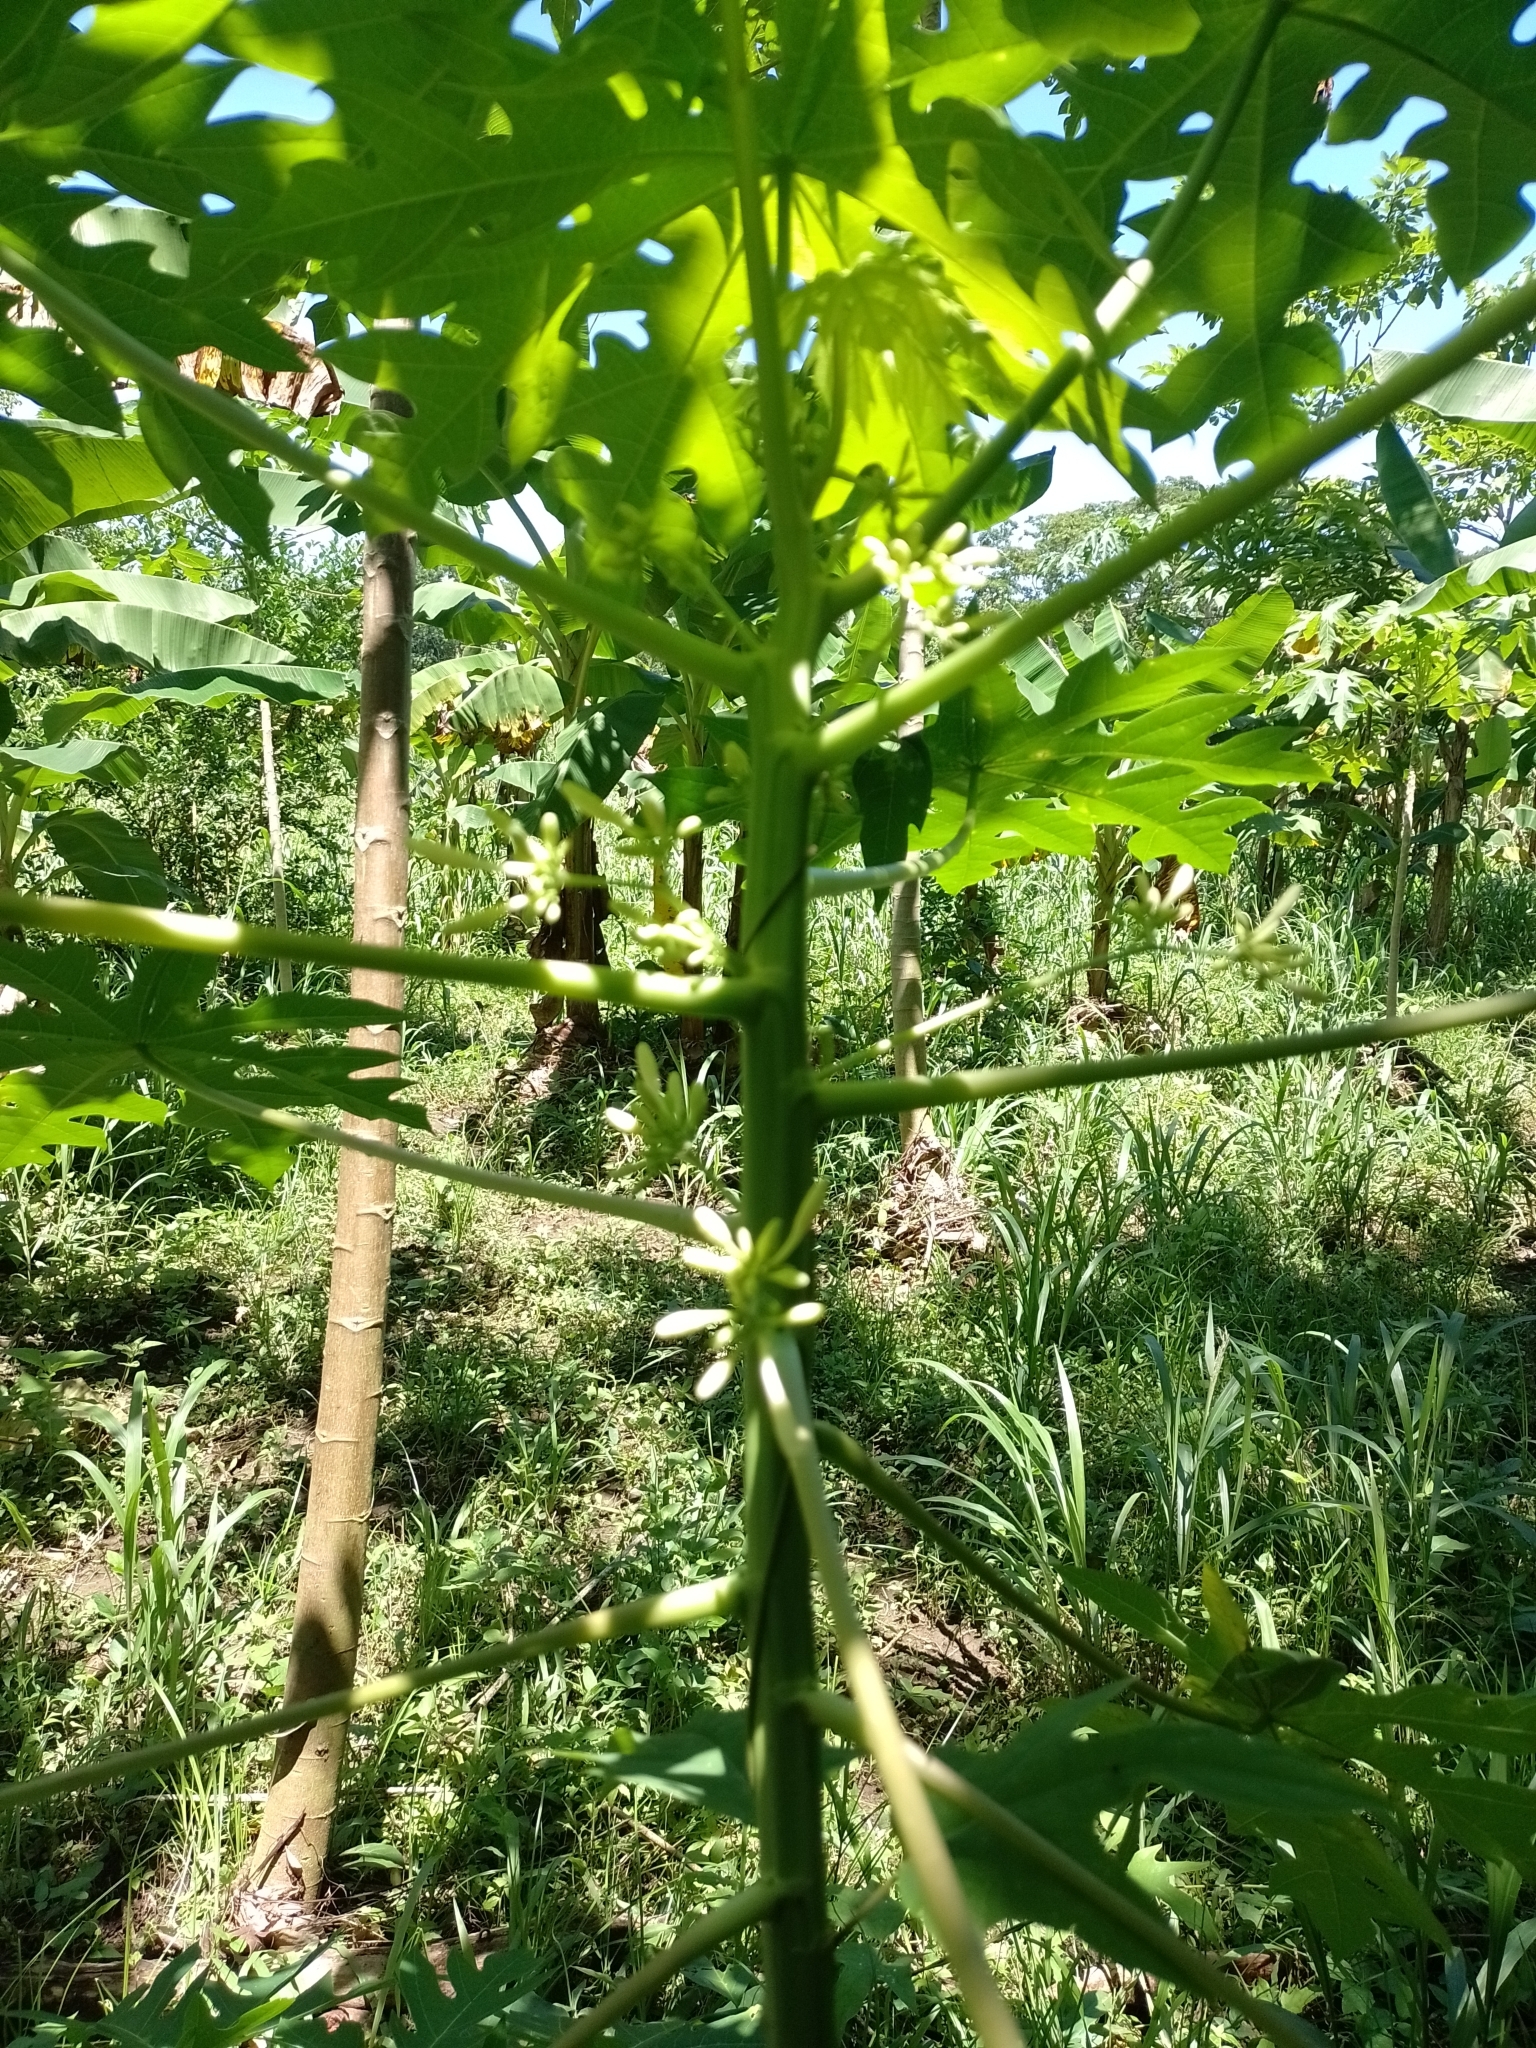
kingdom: Plantae
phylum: Tracheophyta
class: Magnoliopsida
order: Brassicales
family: Caricaceae
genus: Carica
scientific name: Carica papaya
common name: Papaya
